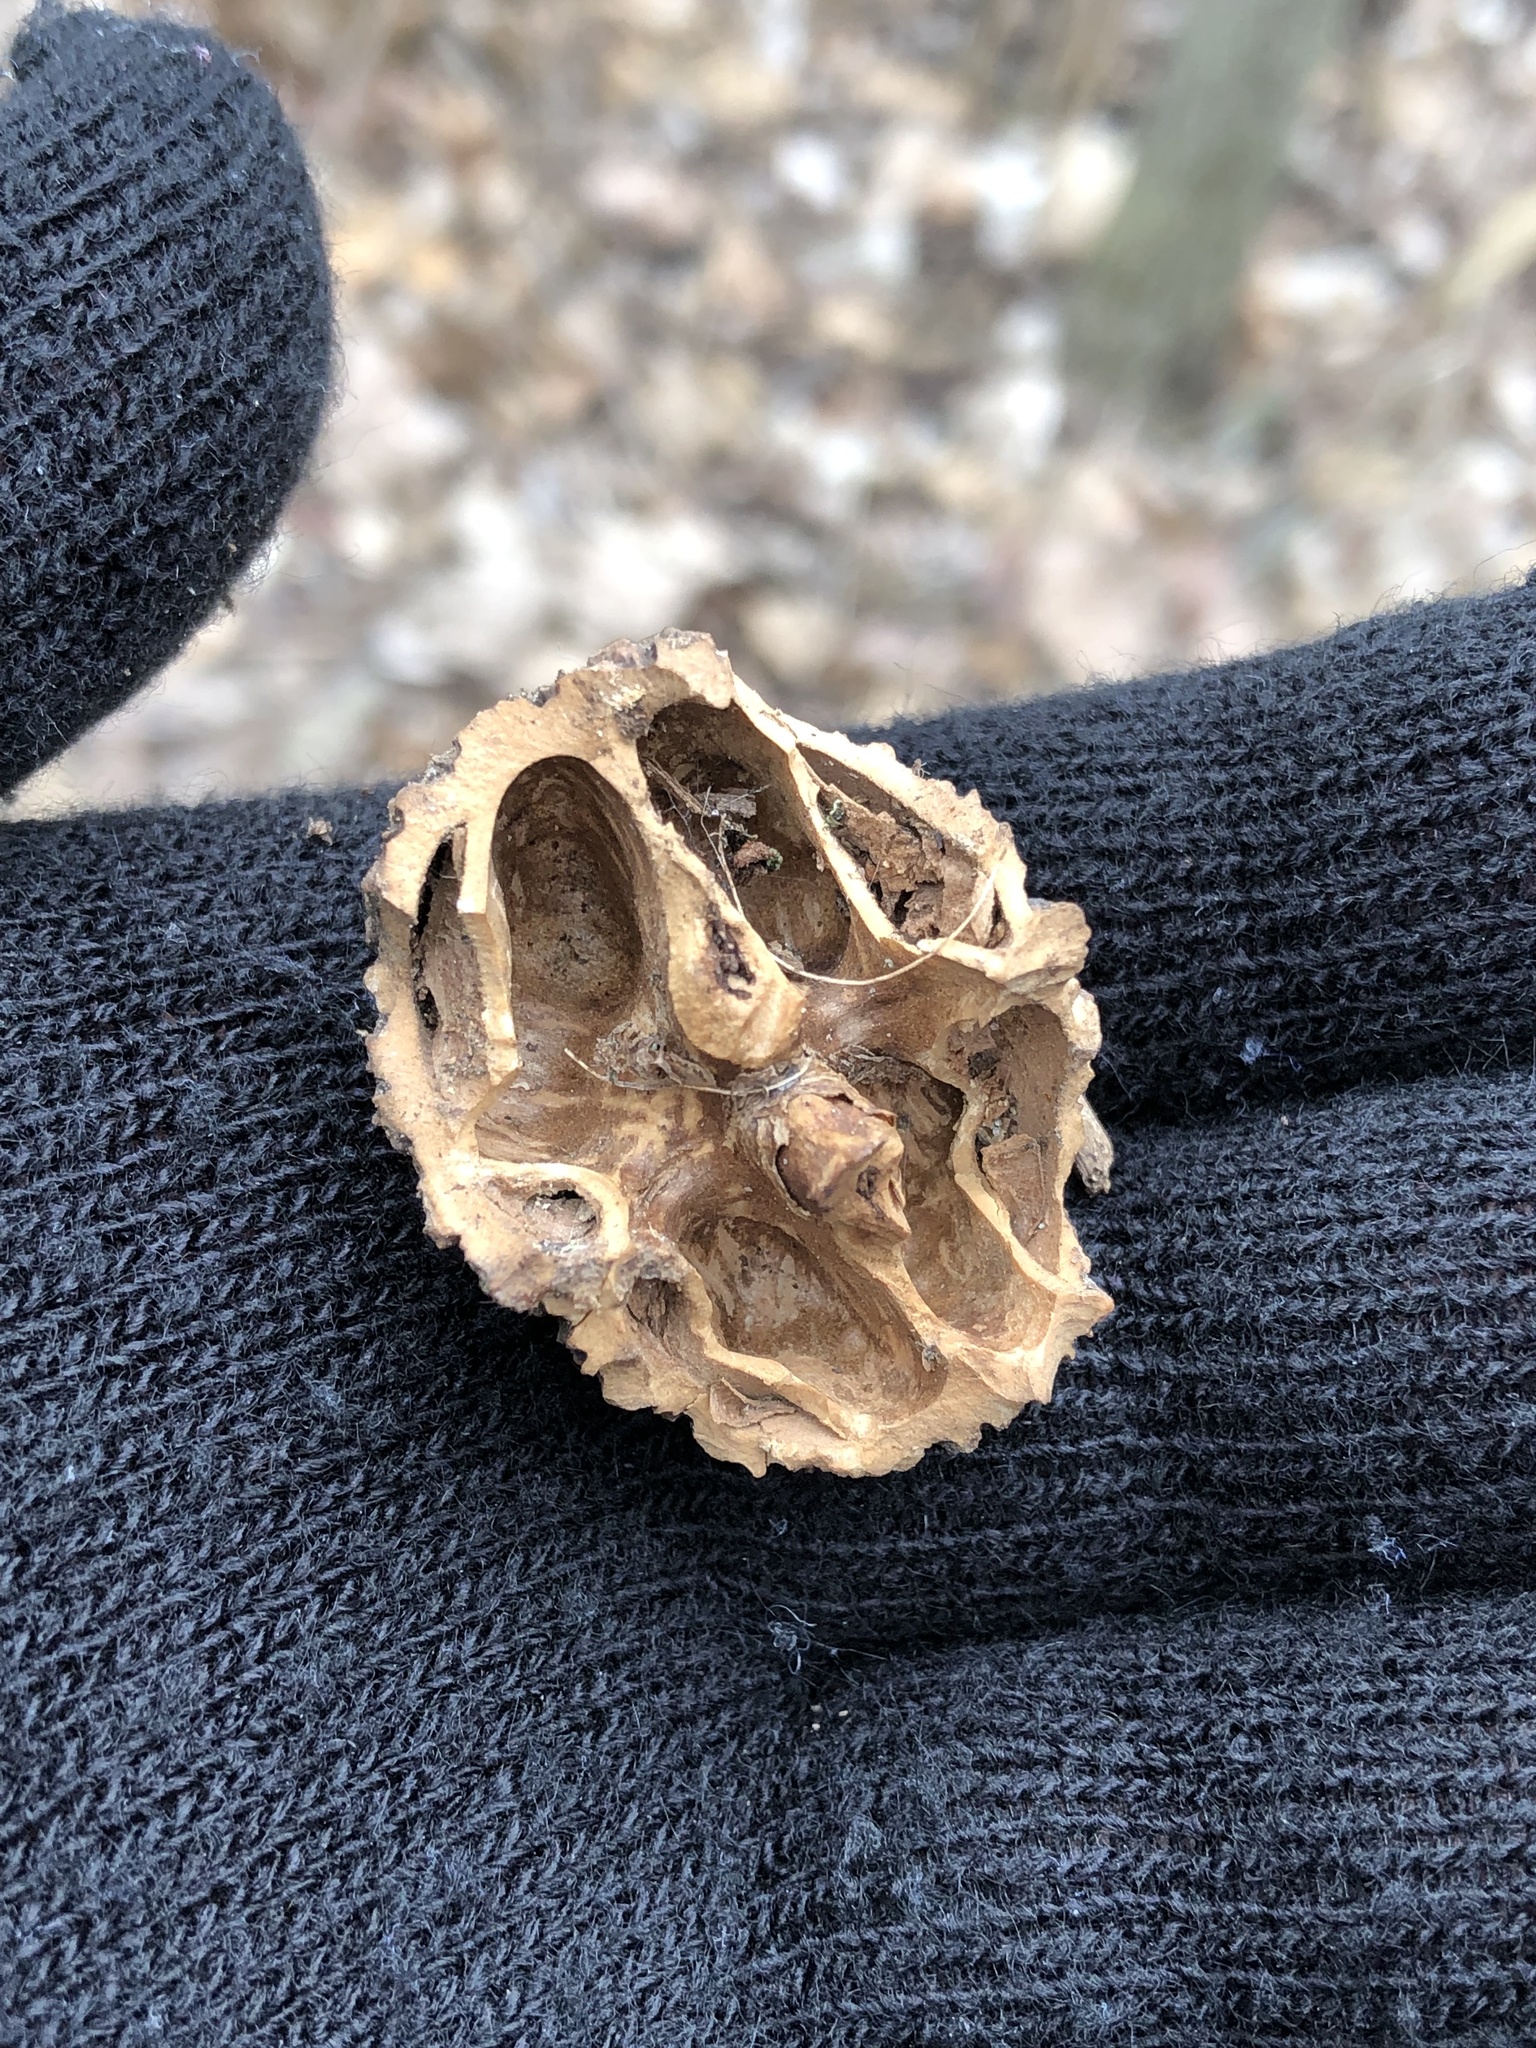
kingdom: Plantae
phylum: Tracheophyta
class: Magnoliopsida
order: Fagales
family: Juglandaceae
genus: Juglans
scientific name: Juglans nigra
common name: Black walnut
